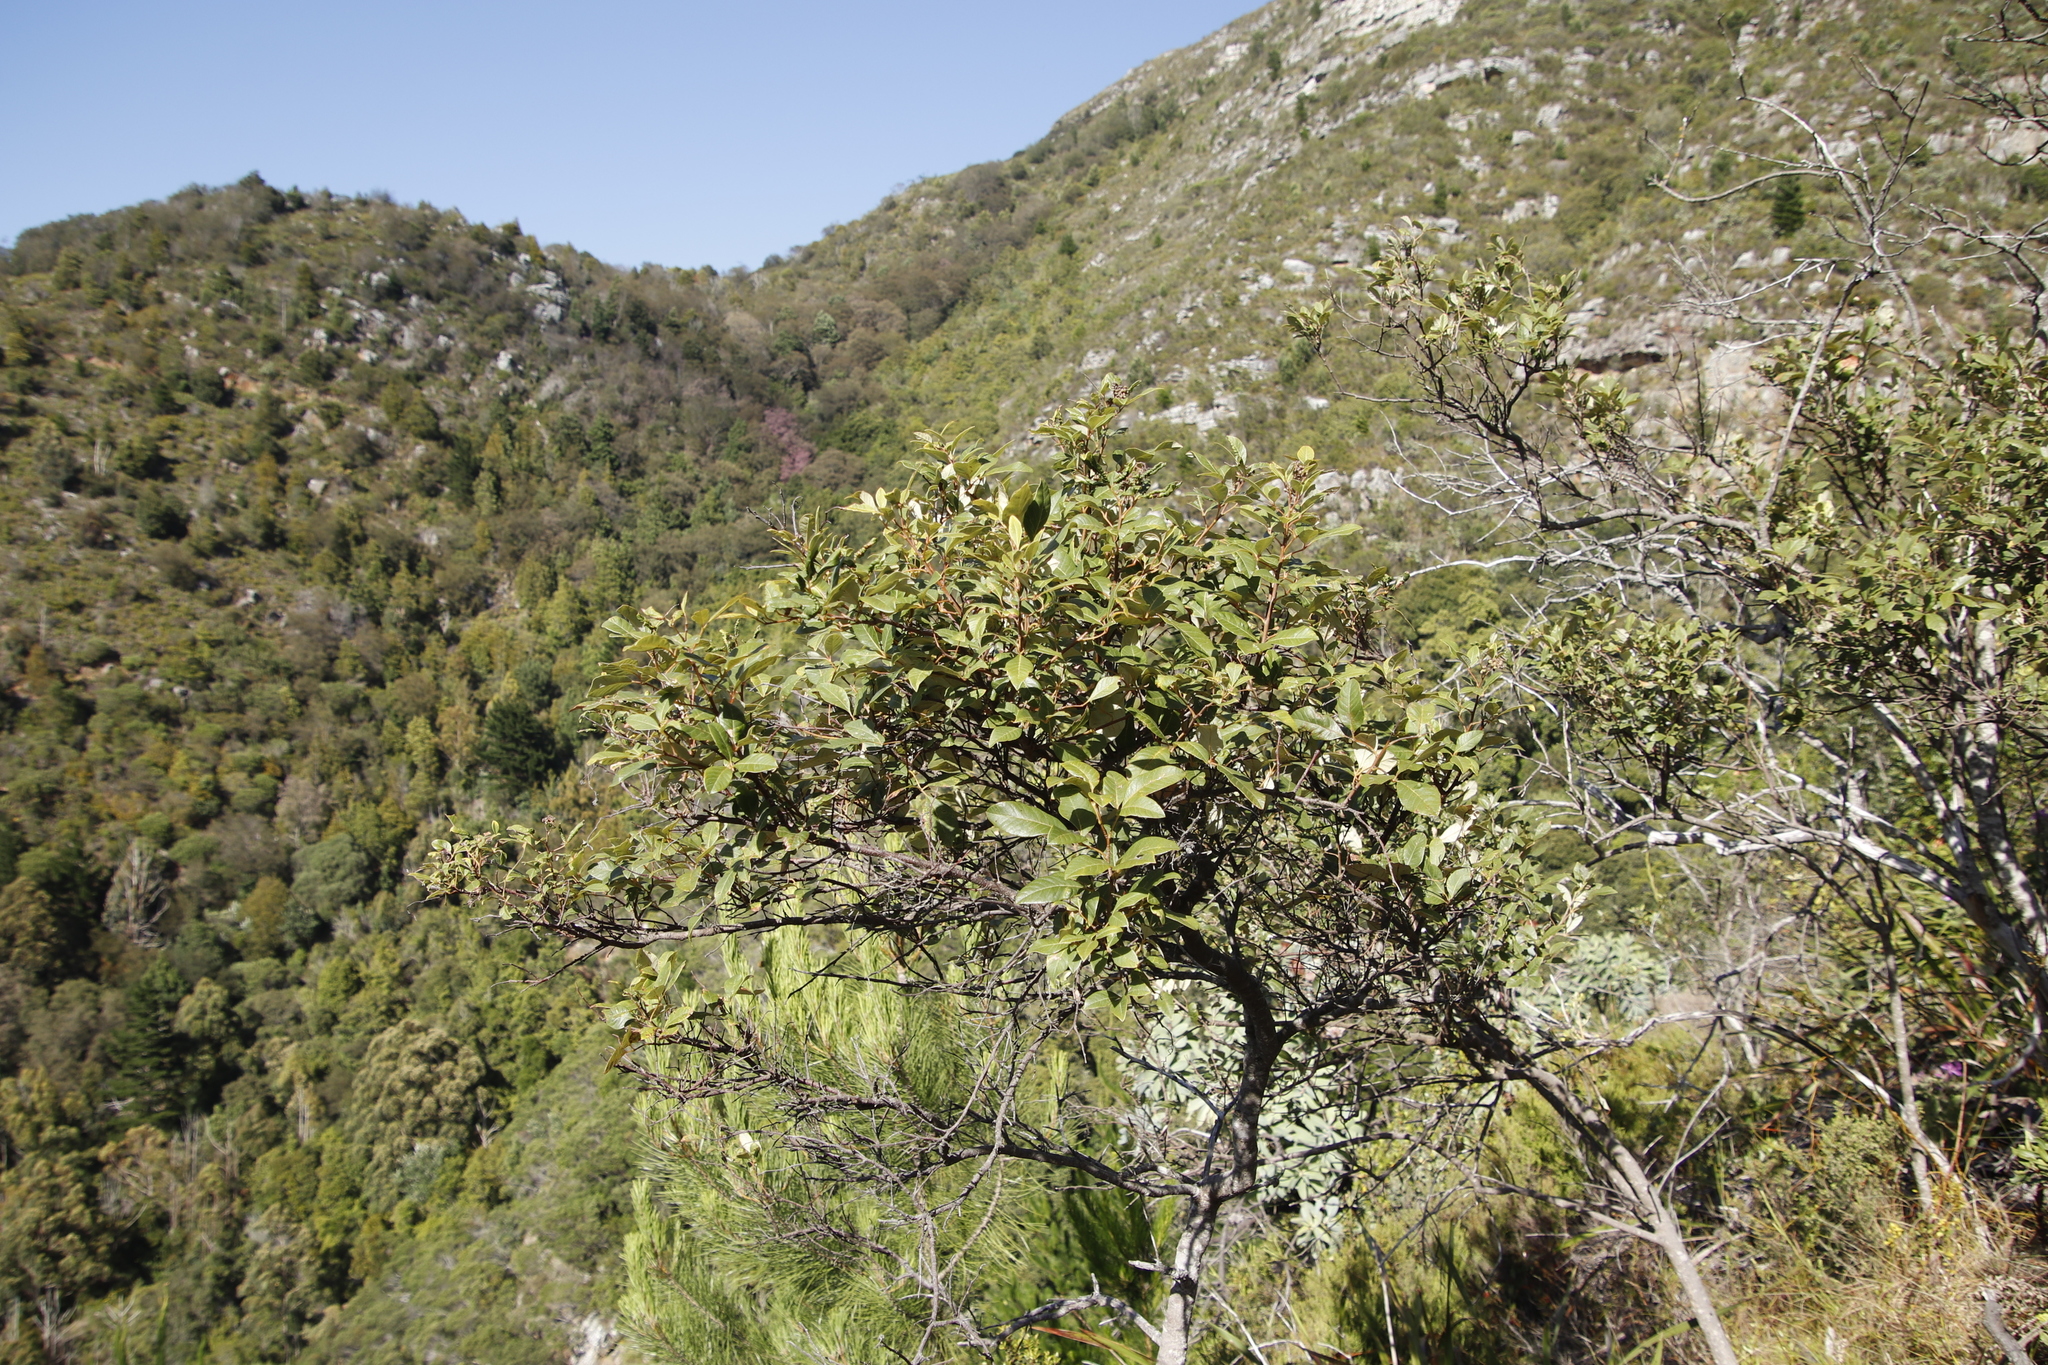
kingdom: Plantae
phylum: Tracheophyta
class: Magnoliopsida
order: Sapindales
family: Anacardiaceae
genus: Searsia
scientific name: Searsia tomentosa
